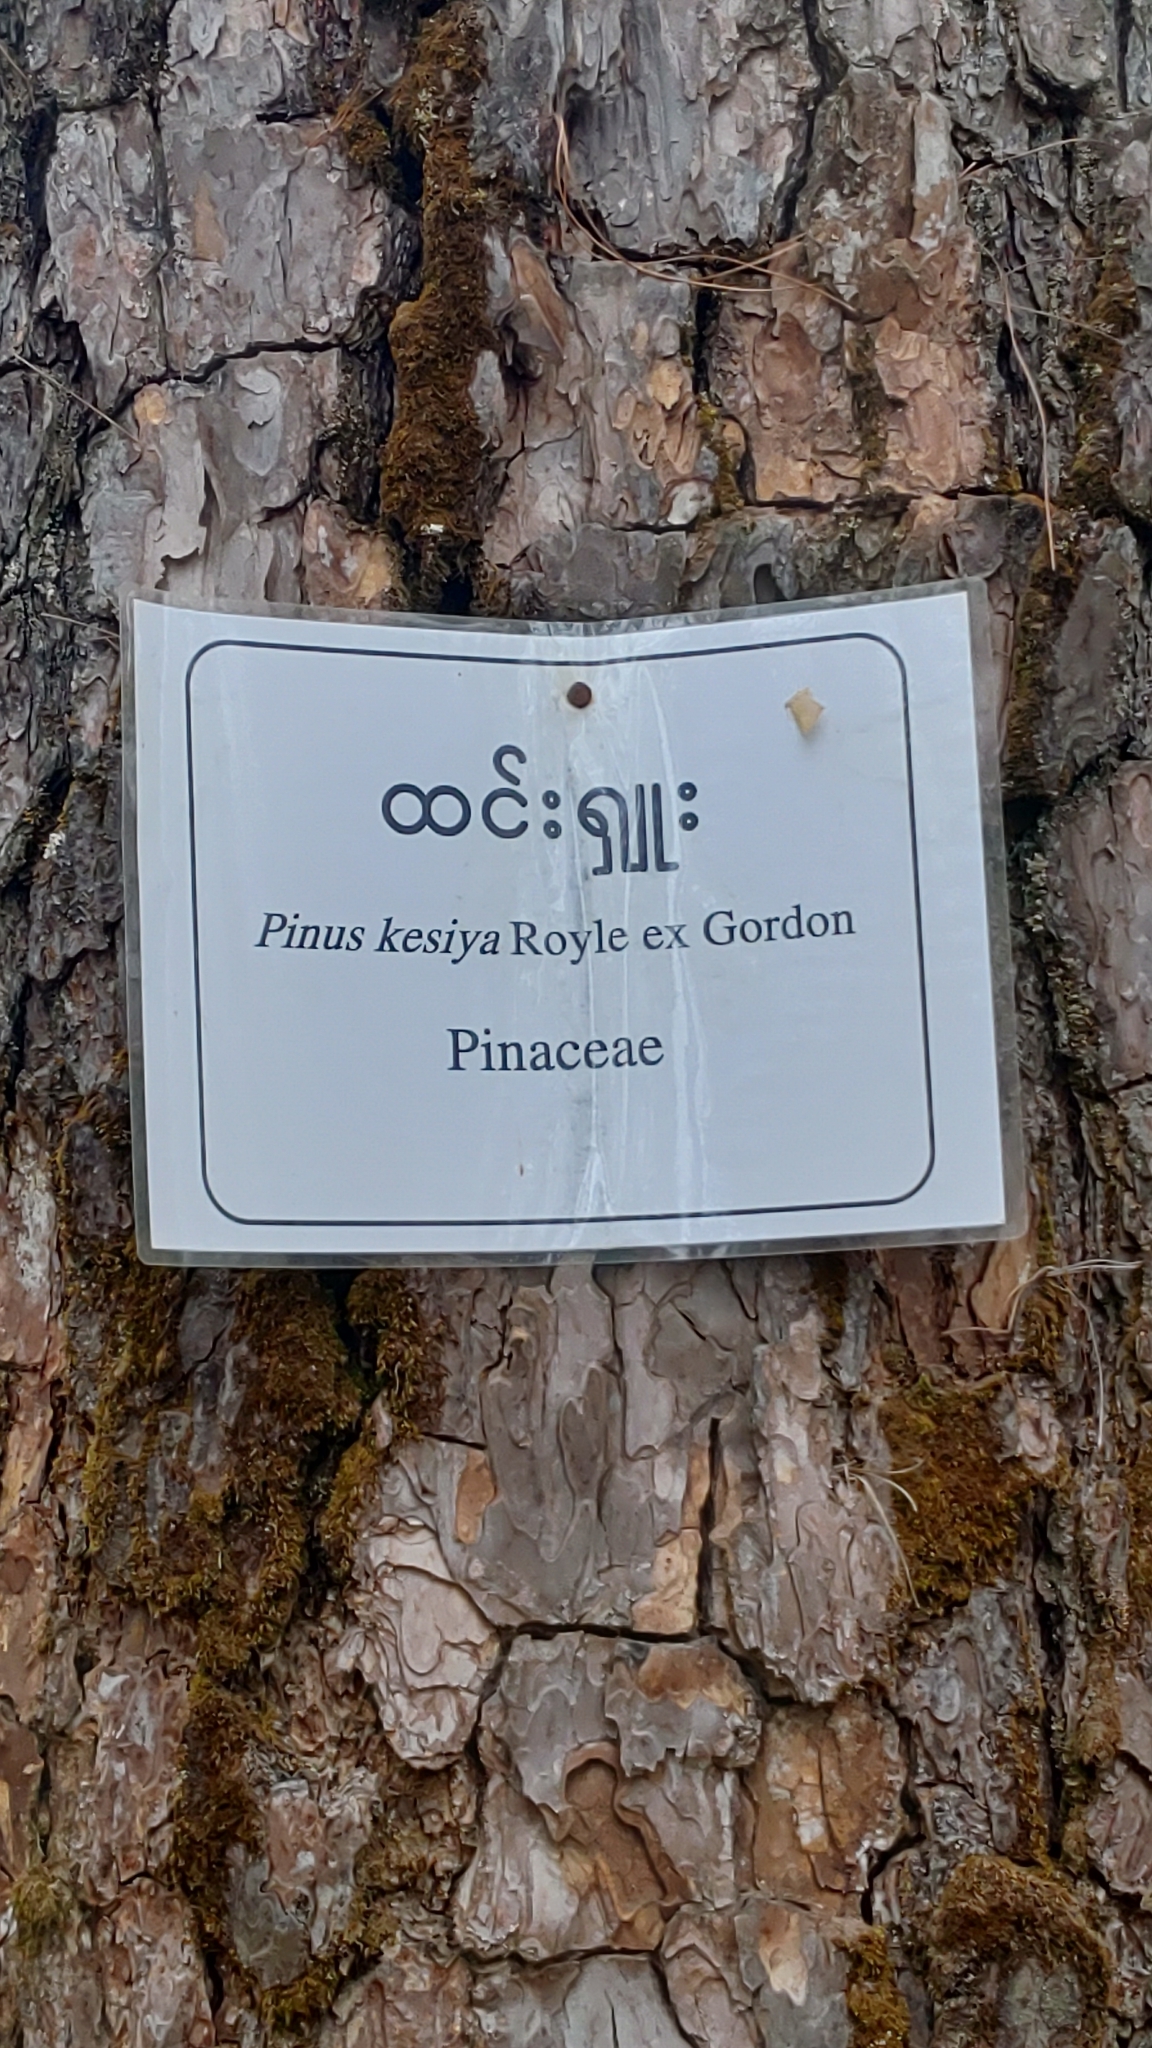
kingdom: Plantae
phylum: Tracheophyta
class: Pinopsida
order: Pinales
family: Pinaceae
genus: Pinus
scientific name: Pinus kesiya
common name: Benguet pine
